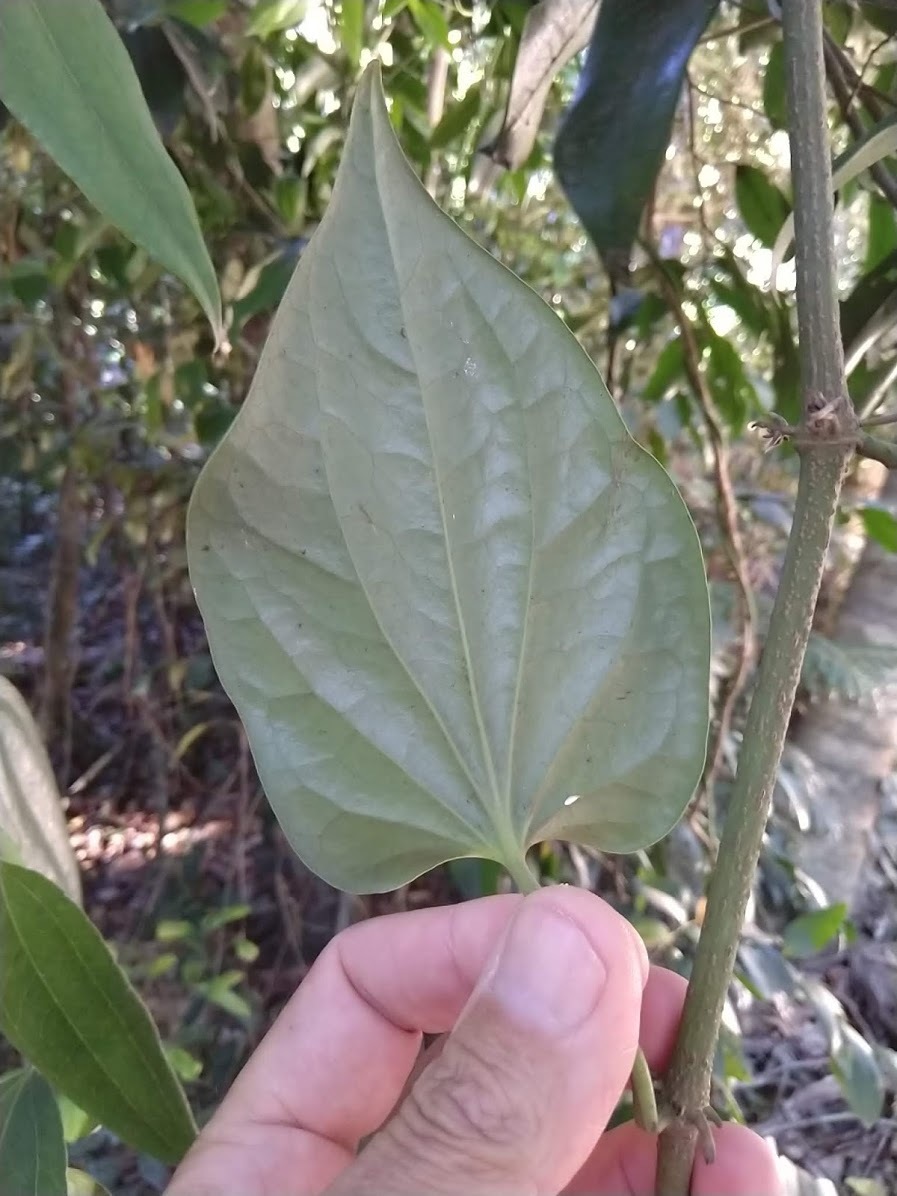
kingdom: Plantae
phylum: Tracheophyta
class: Magnoliopsida
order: Piperales
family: Piperaceae
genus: Piper
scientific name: Piper hederaceum
